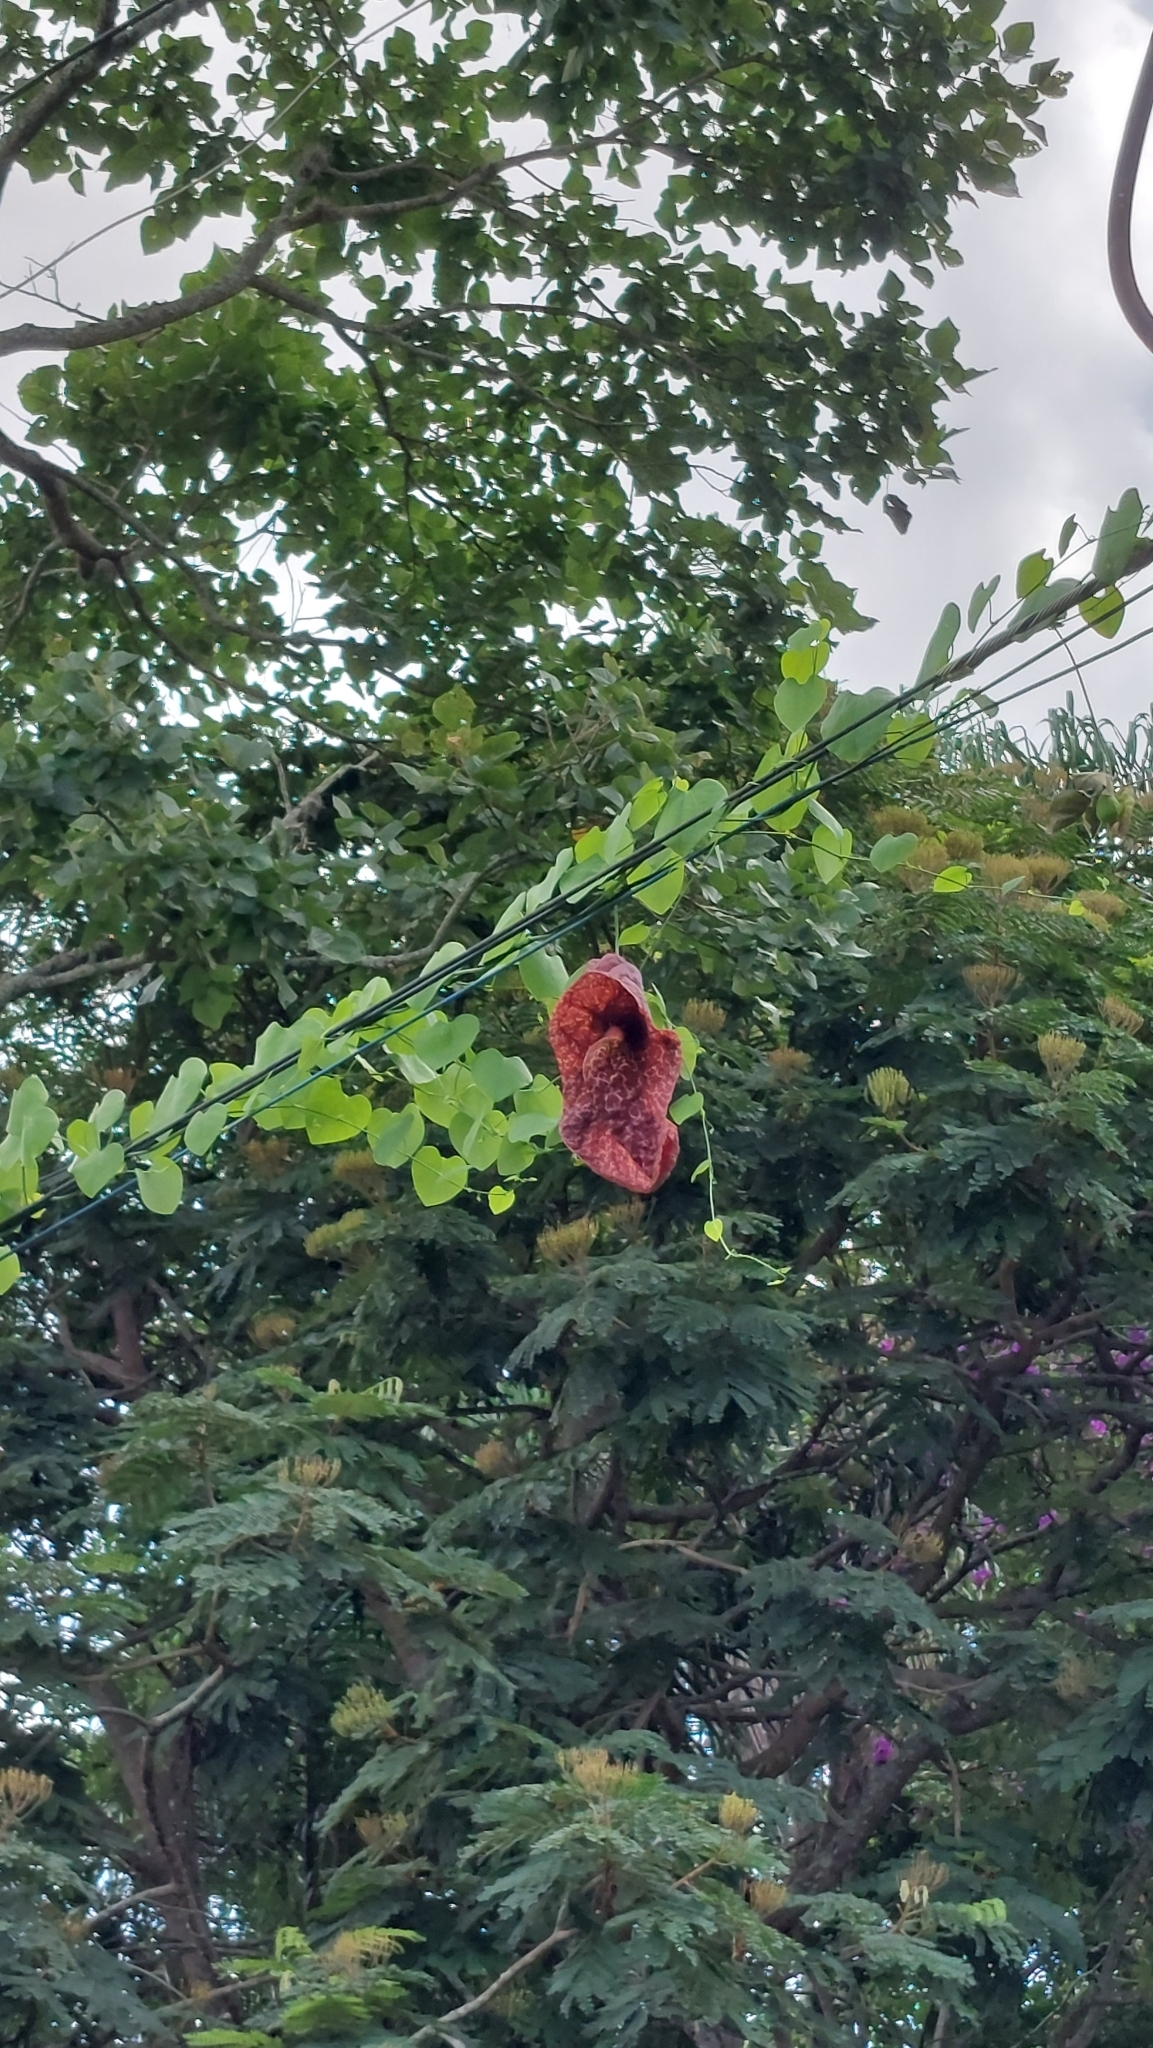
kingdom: Plantae
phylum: Tracheophyta
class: Magnoliopsida
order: Piperales
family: Aristolochiaceae
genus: Aristolochia
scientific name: Aristolochia gigantea
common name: Duckflower
